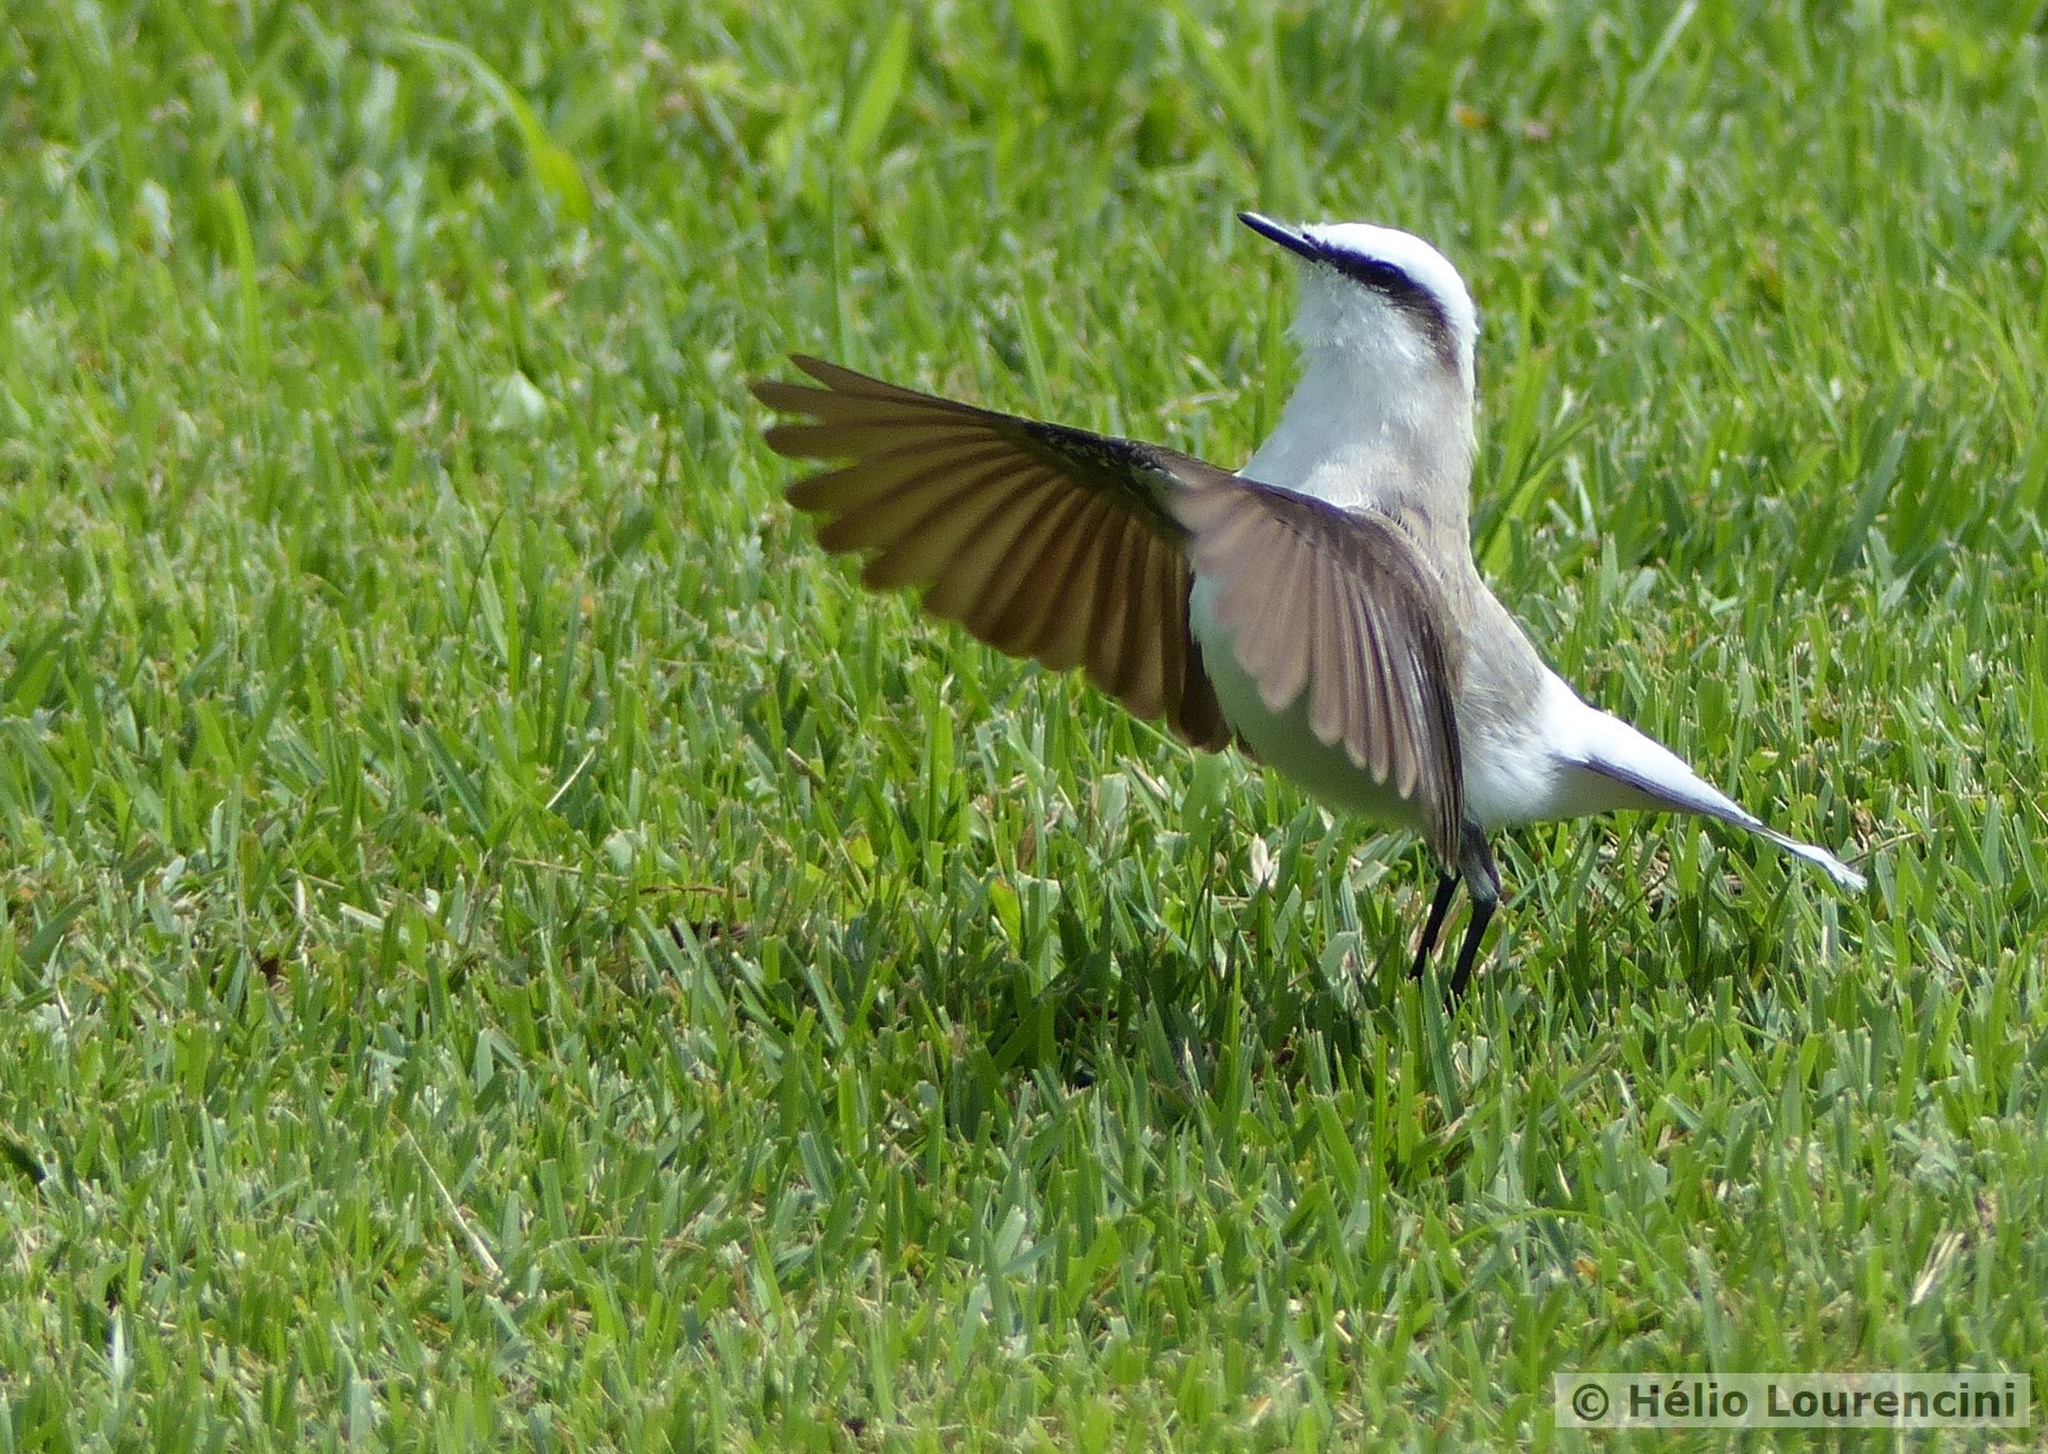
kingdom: Animalia
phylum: Chordata
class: Aves
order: Passeriformes
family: Tyrannidae
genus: Fluvicola
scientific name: Fluvicola nengeta
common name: Masked water tyrant
